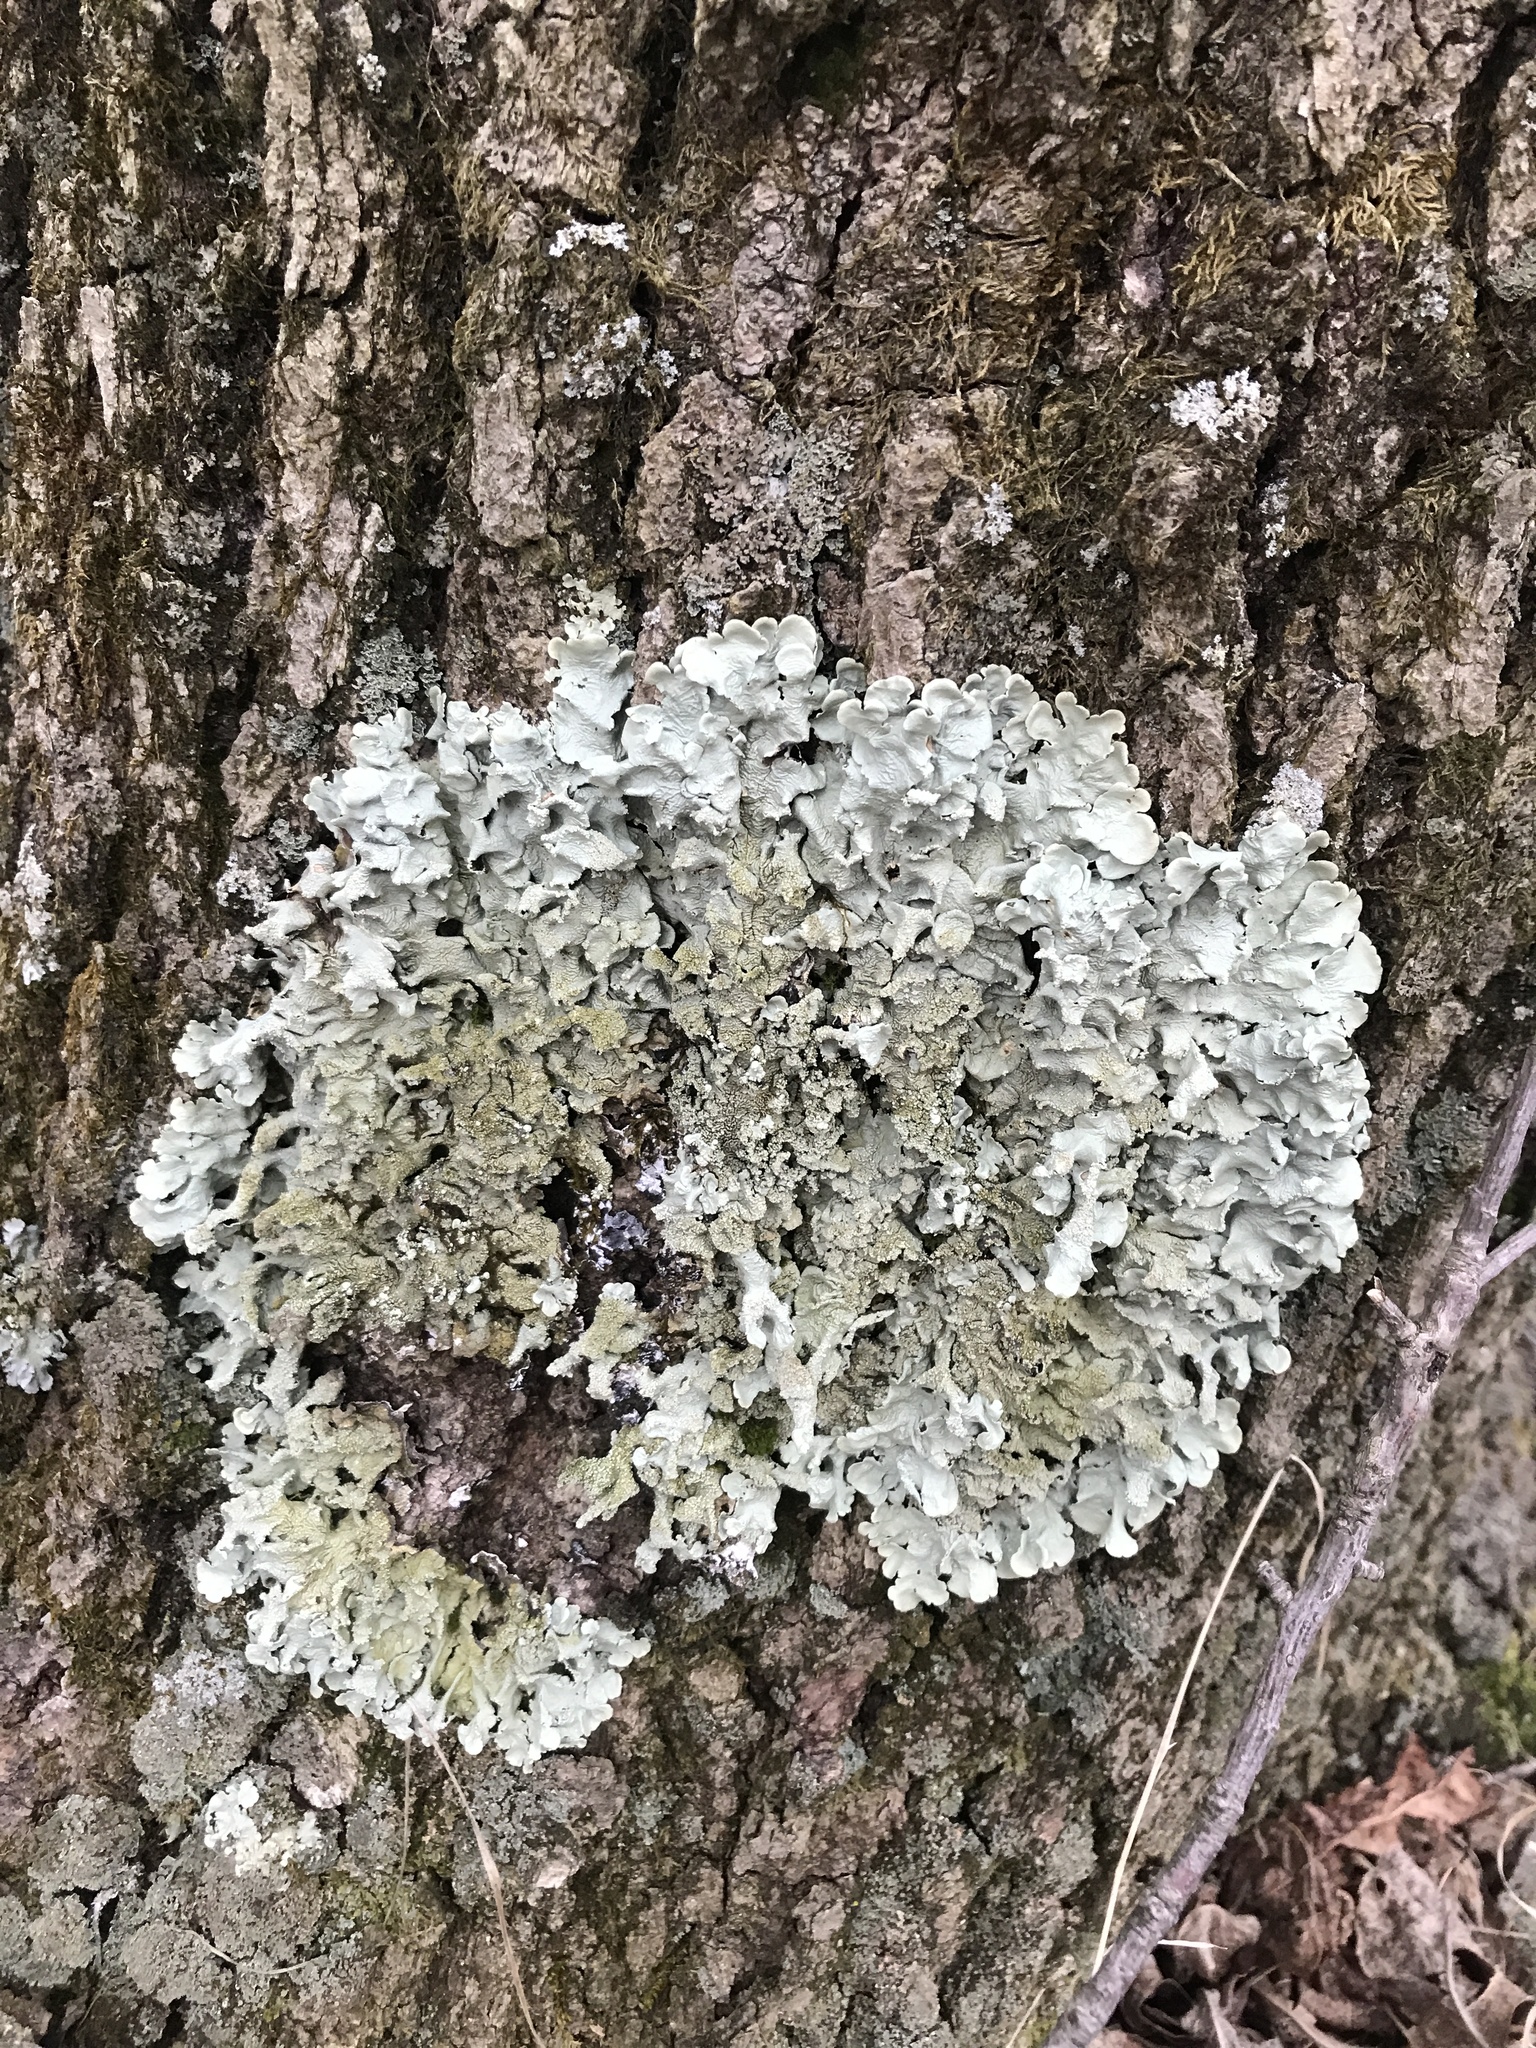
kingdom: Fungi
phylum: Ascomycota
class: Lecanoromycetes
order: Lecanorales
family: Parmeliaceae
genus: Flavoparmelia
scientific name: Flavoparmelia caperata
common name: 40-mile per hour lichen
